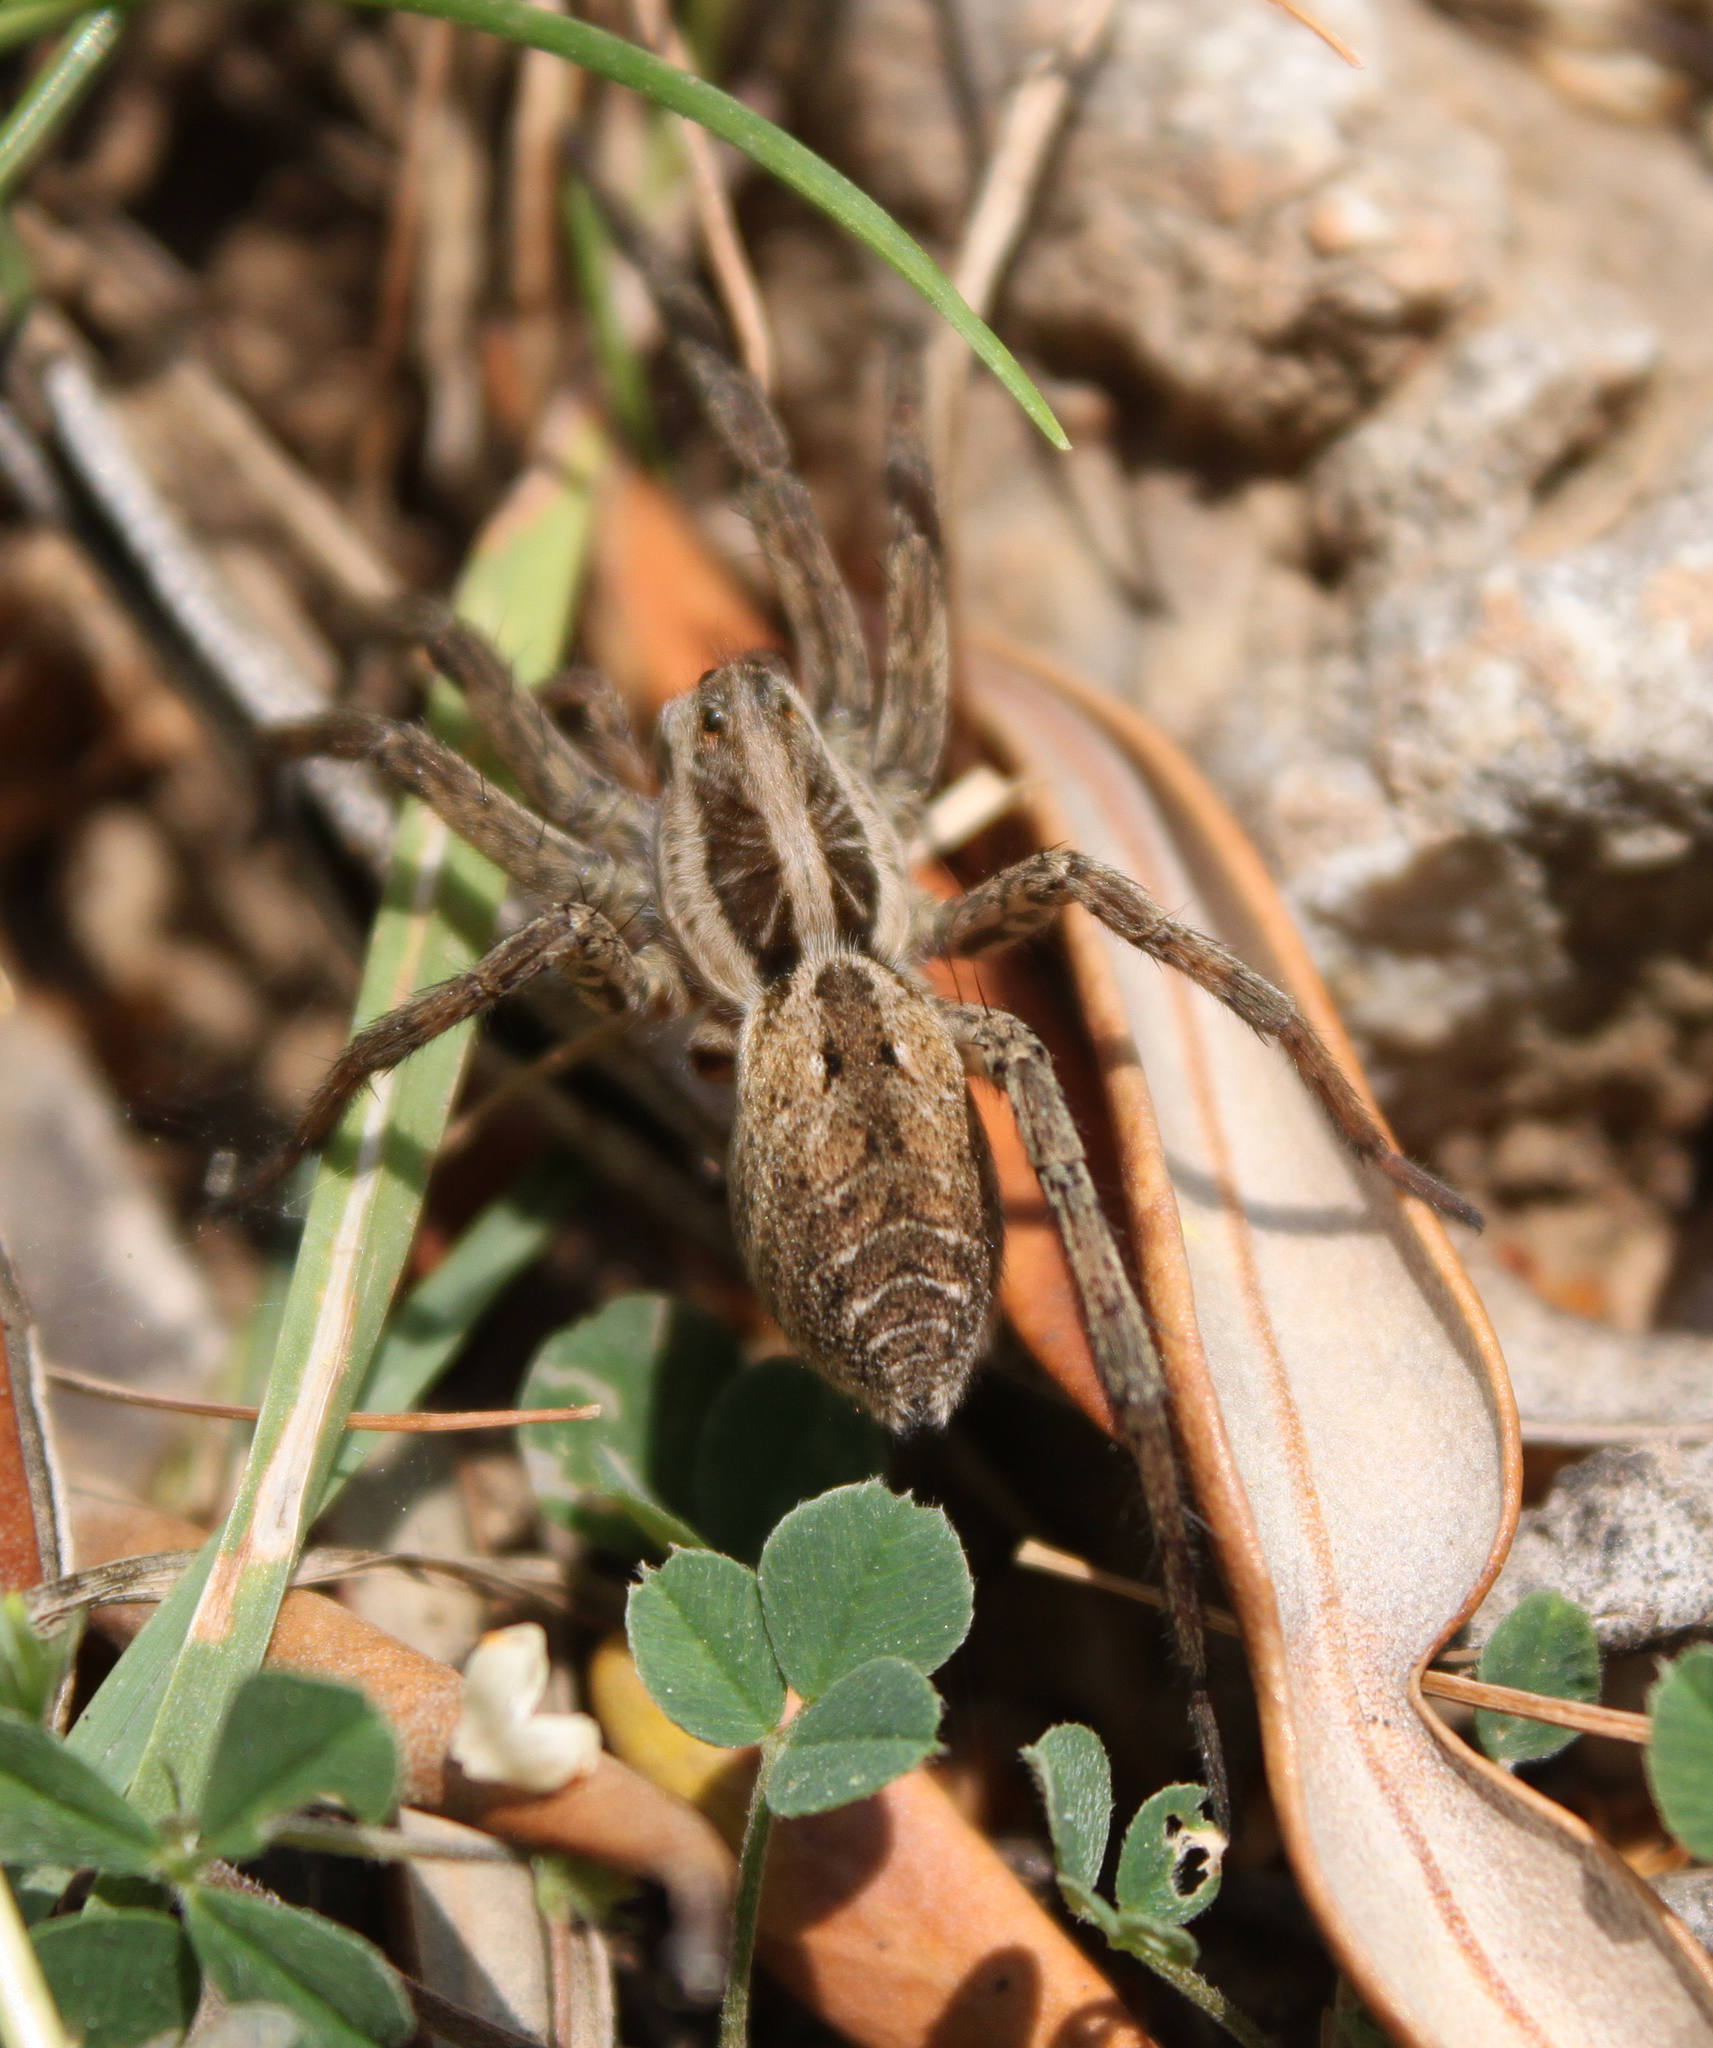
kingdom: Animalia
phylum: Arthropoda
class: Arachnida
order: Araneae
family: Lycosidae
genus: Hogna
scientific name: Hogna radiata
